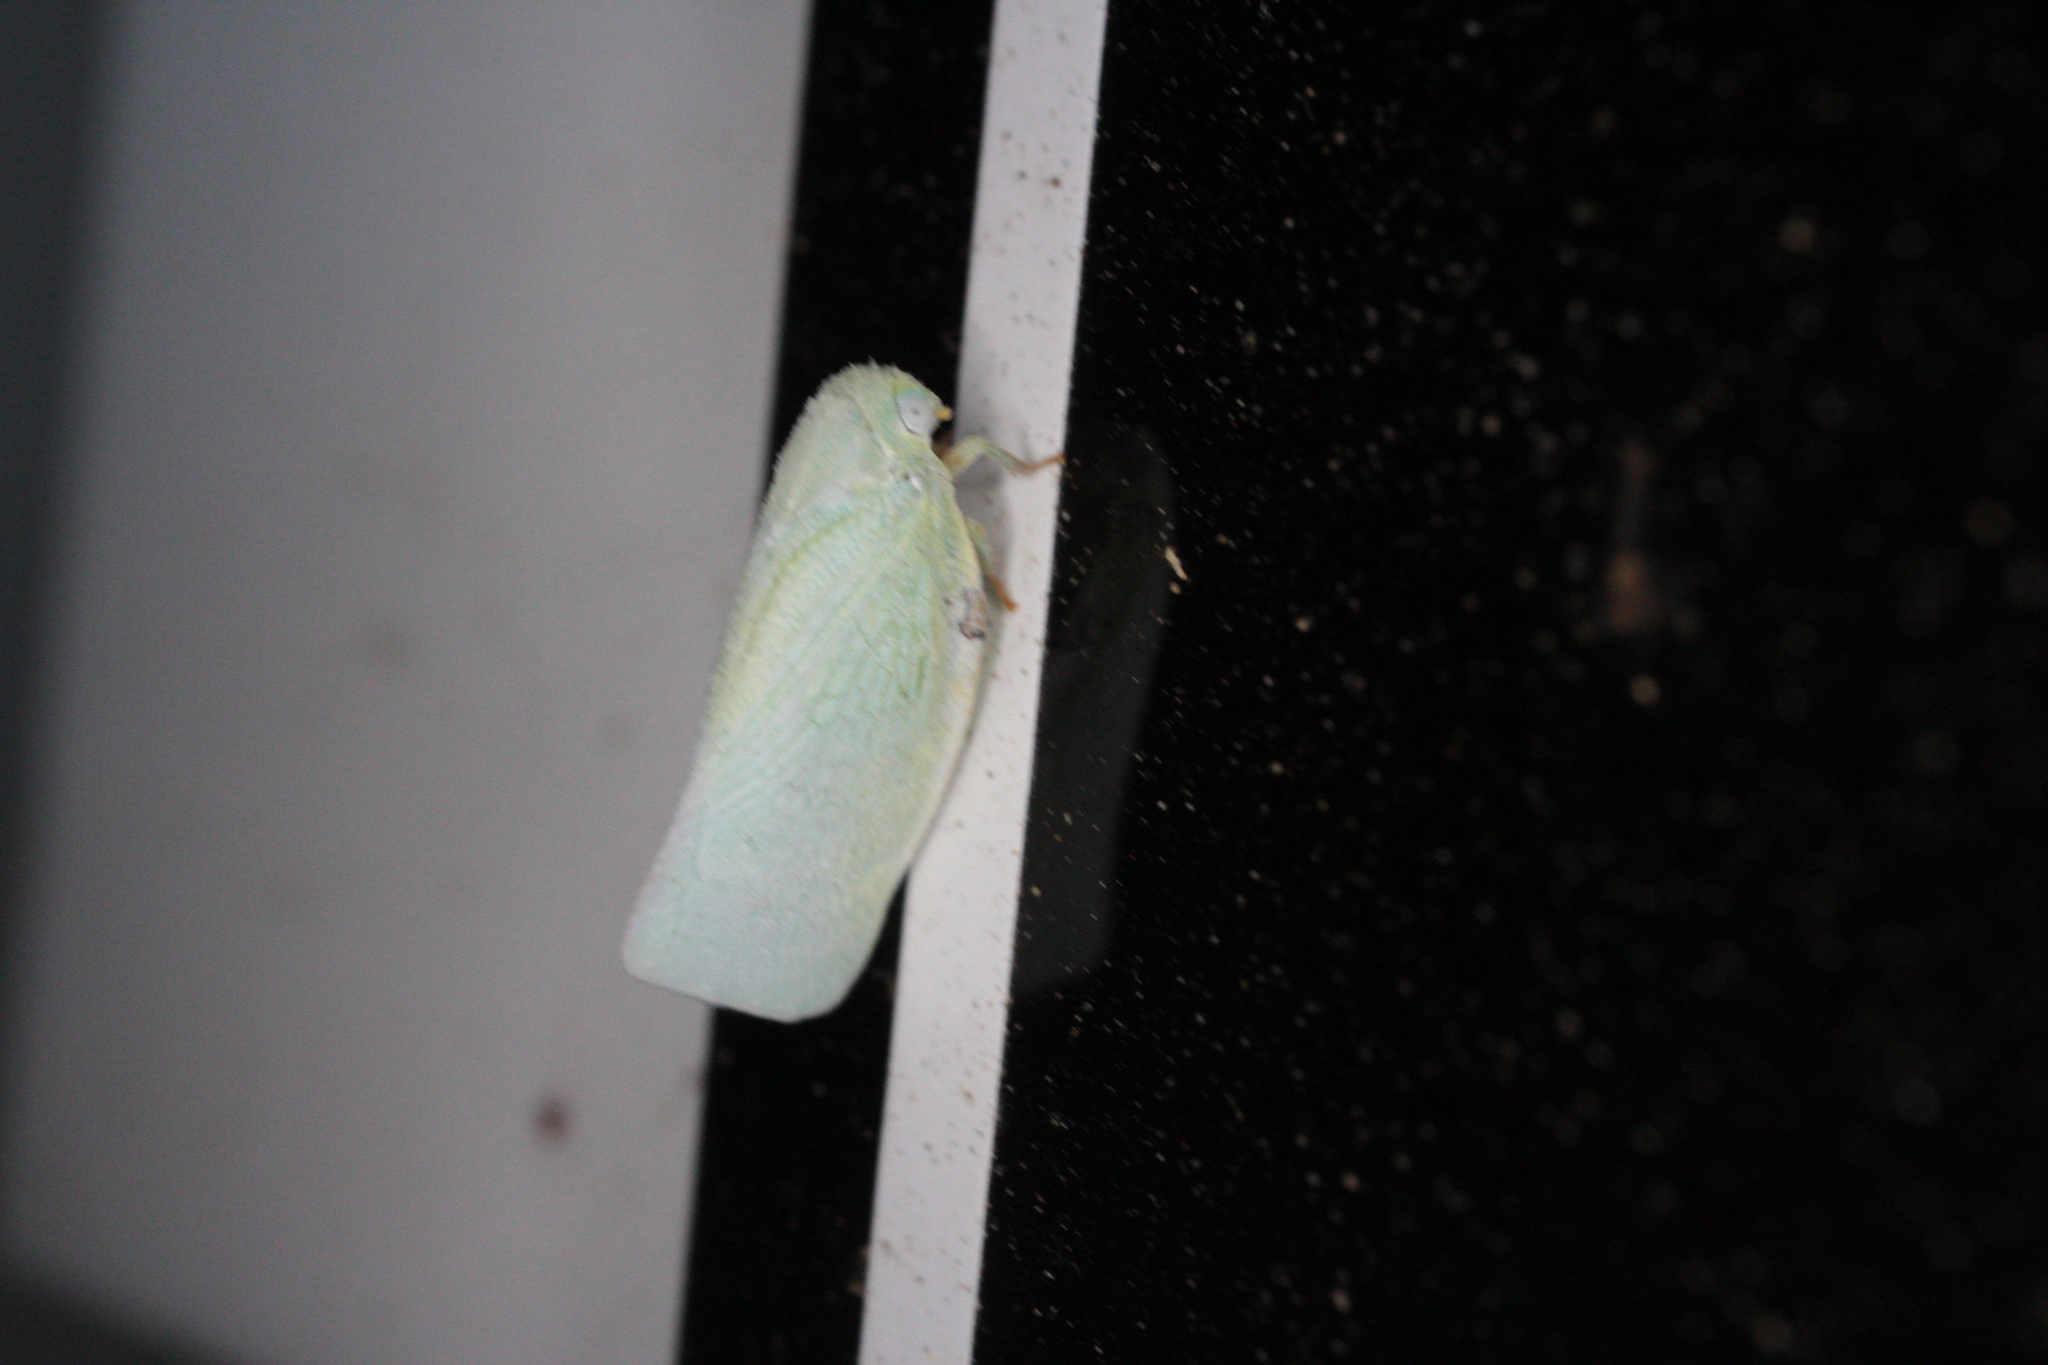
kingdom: Animalia
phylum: Arthropoda
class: Insecta
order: Hemiptera
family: Flatidae
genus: Flatormenis
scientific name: Flatormenis proxima
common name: Northern flatid planthopper
